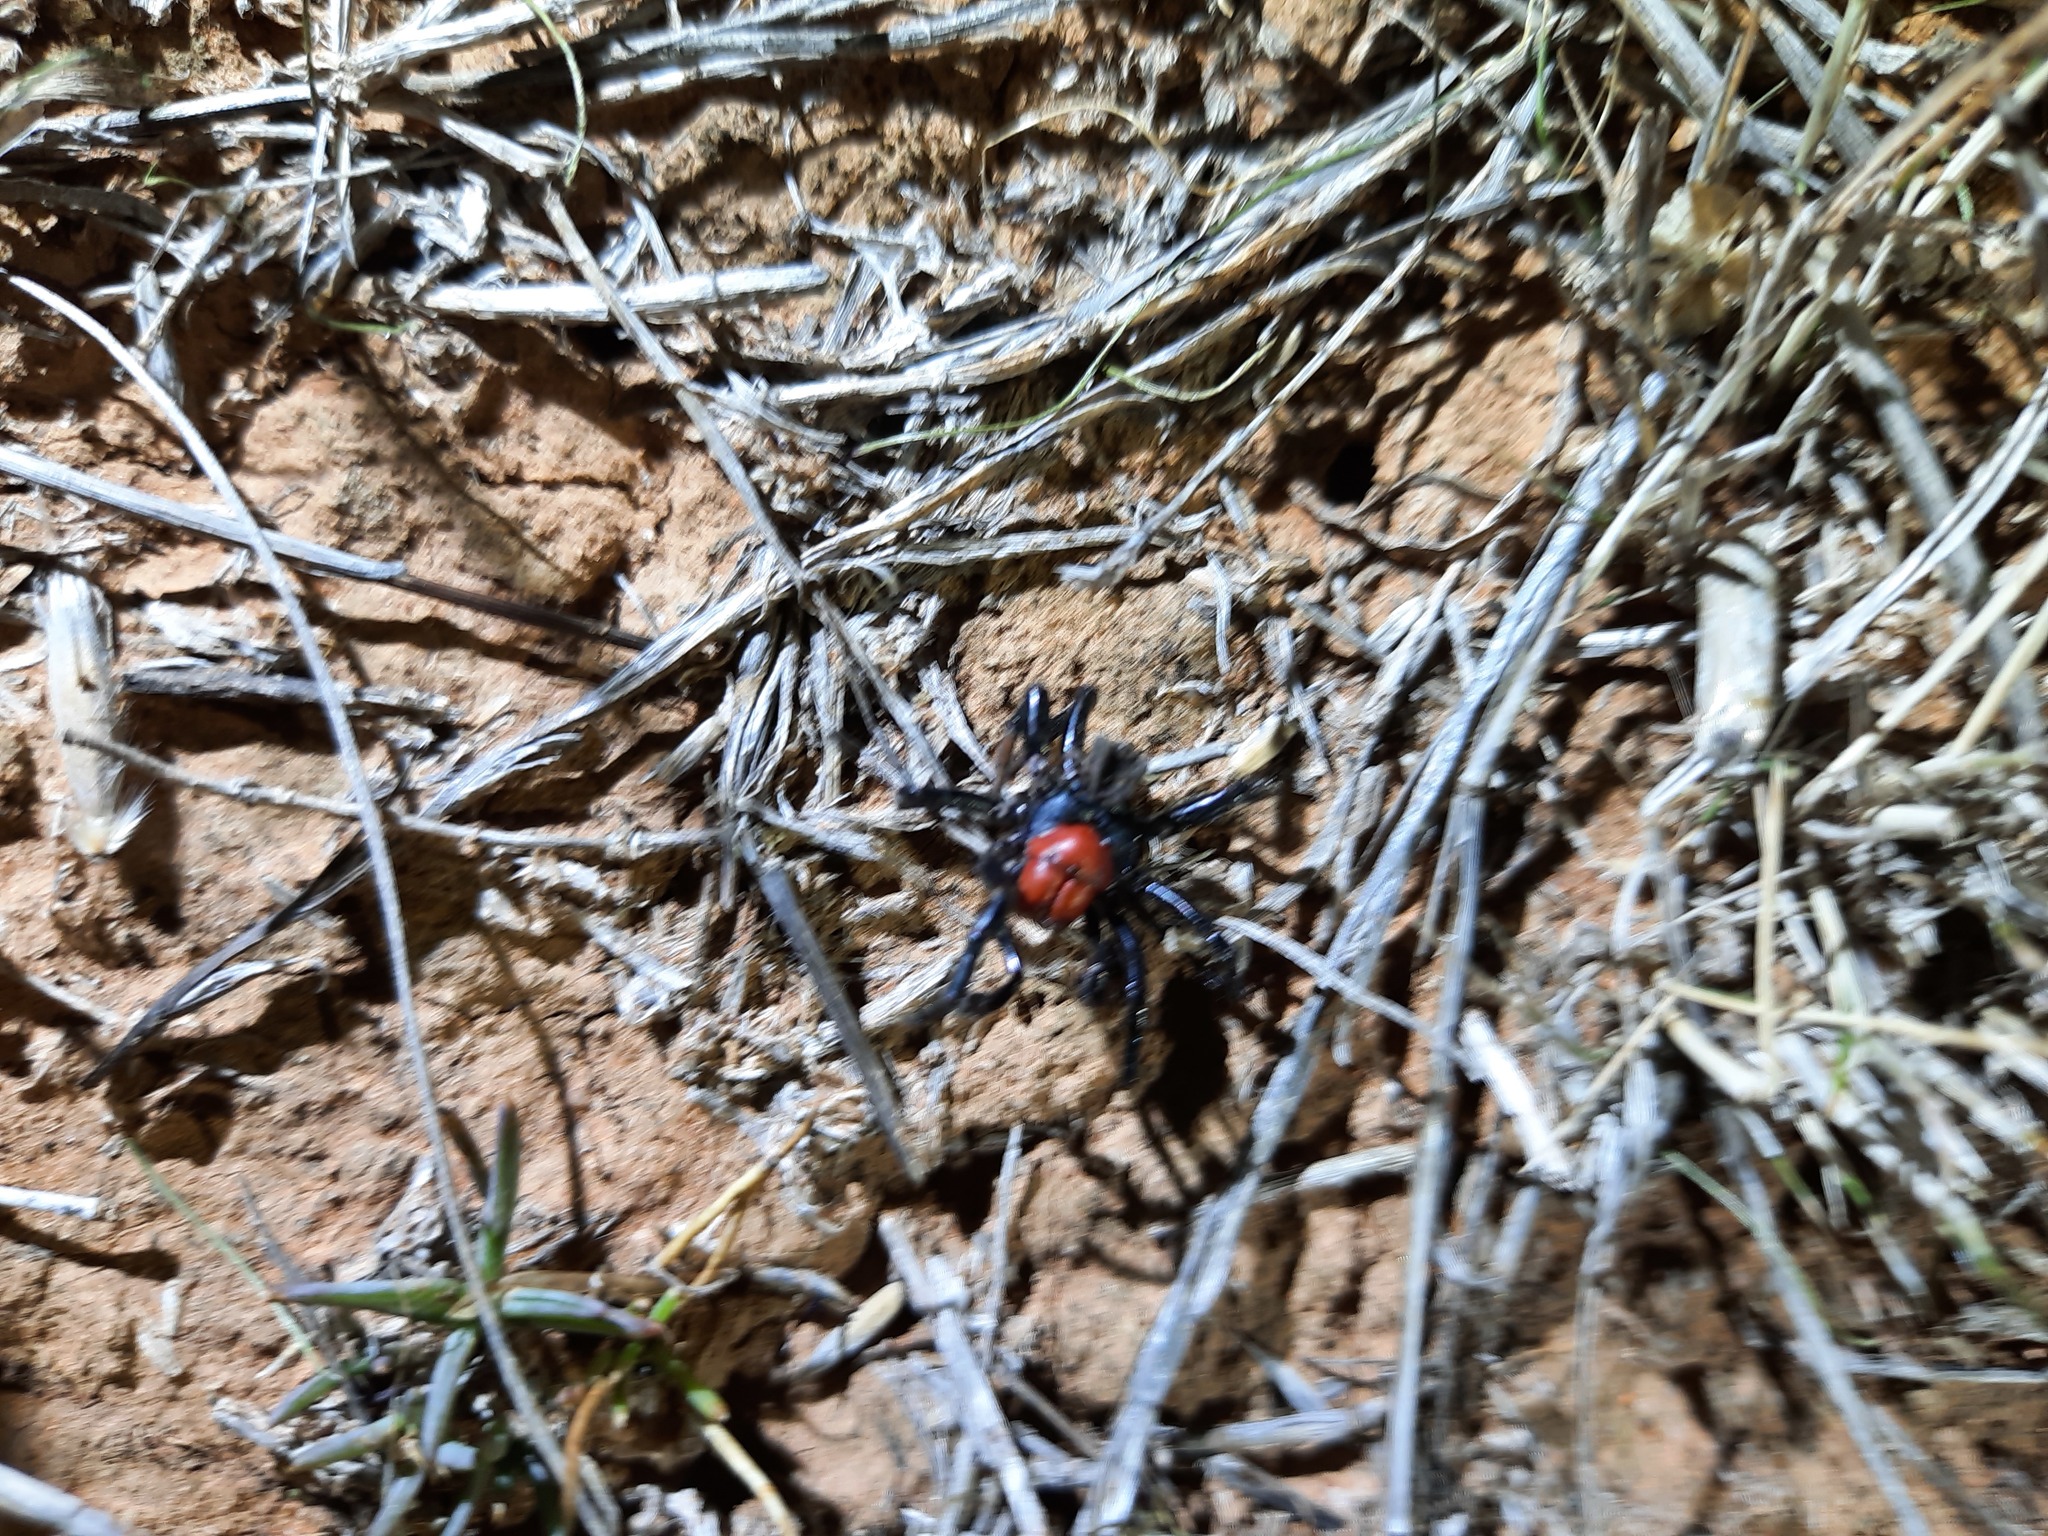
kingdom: Animalia
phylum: Arthropoda
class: Arachnida
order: Araneae
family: Actinopodidae
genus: Missulena
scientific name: Missulena occatoria
